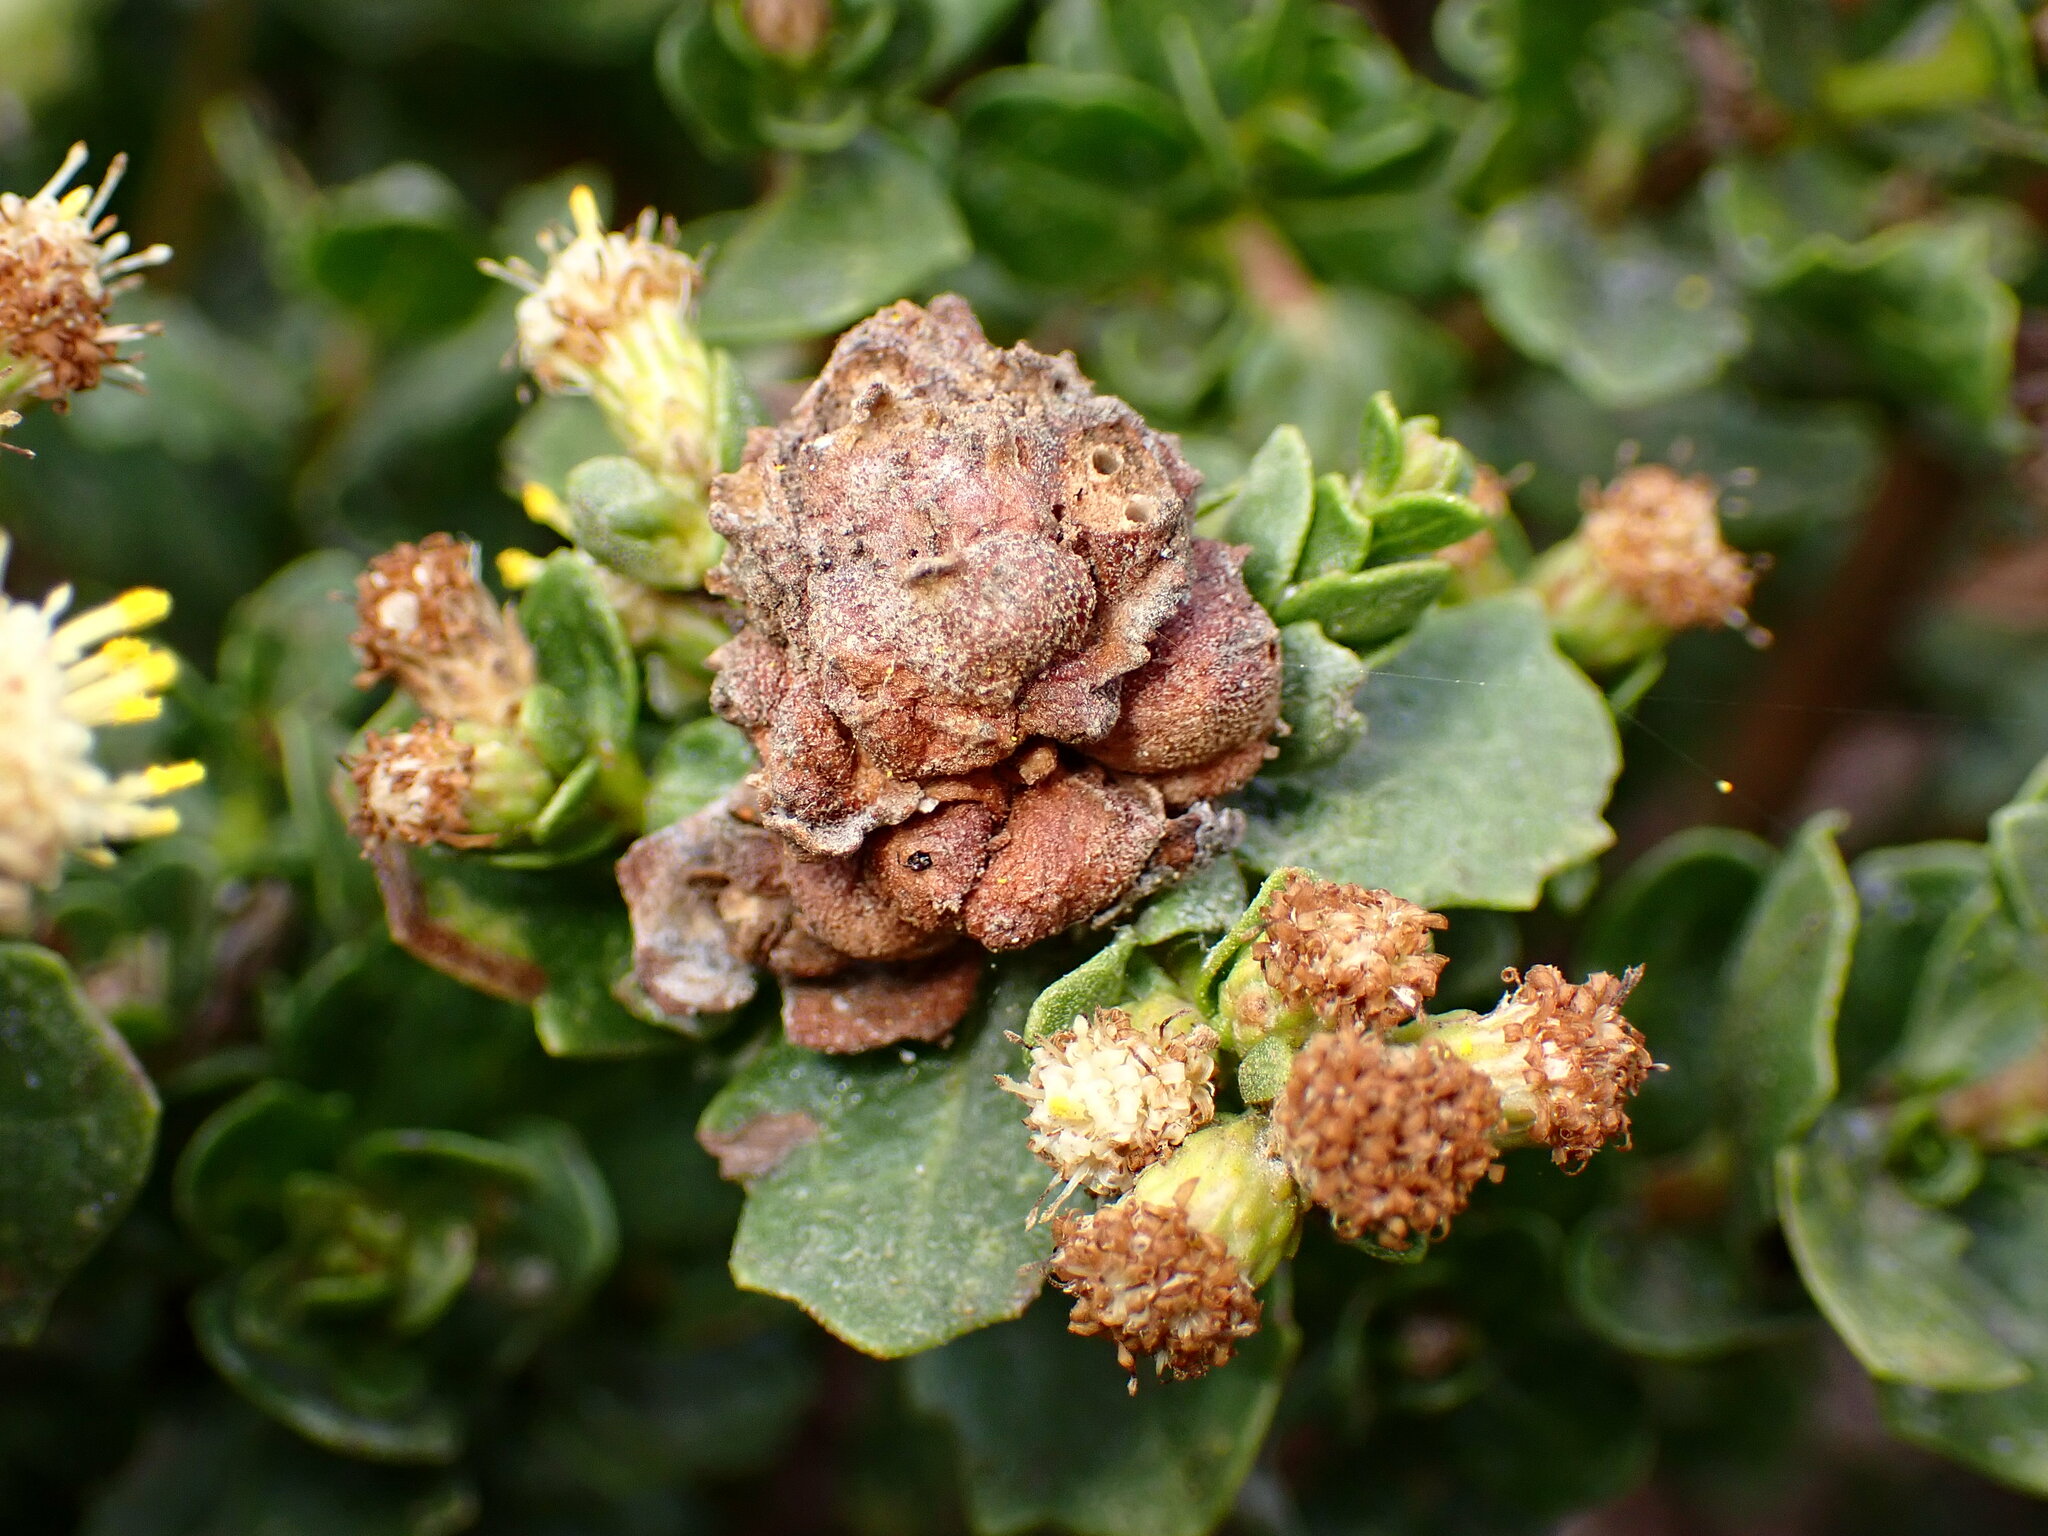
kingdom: Animalia
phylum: Arthropoda
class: Insecta
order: Diptera
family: Cecidomyiidae
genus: Rhopalomyia
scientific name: Rhopalomyia californica
